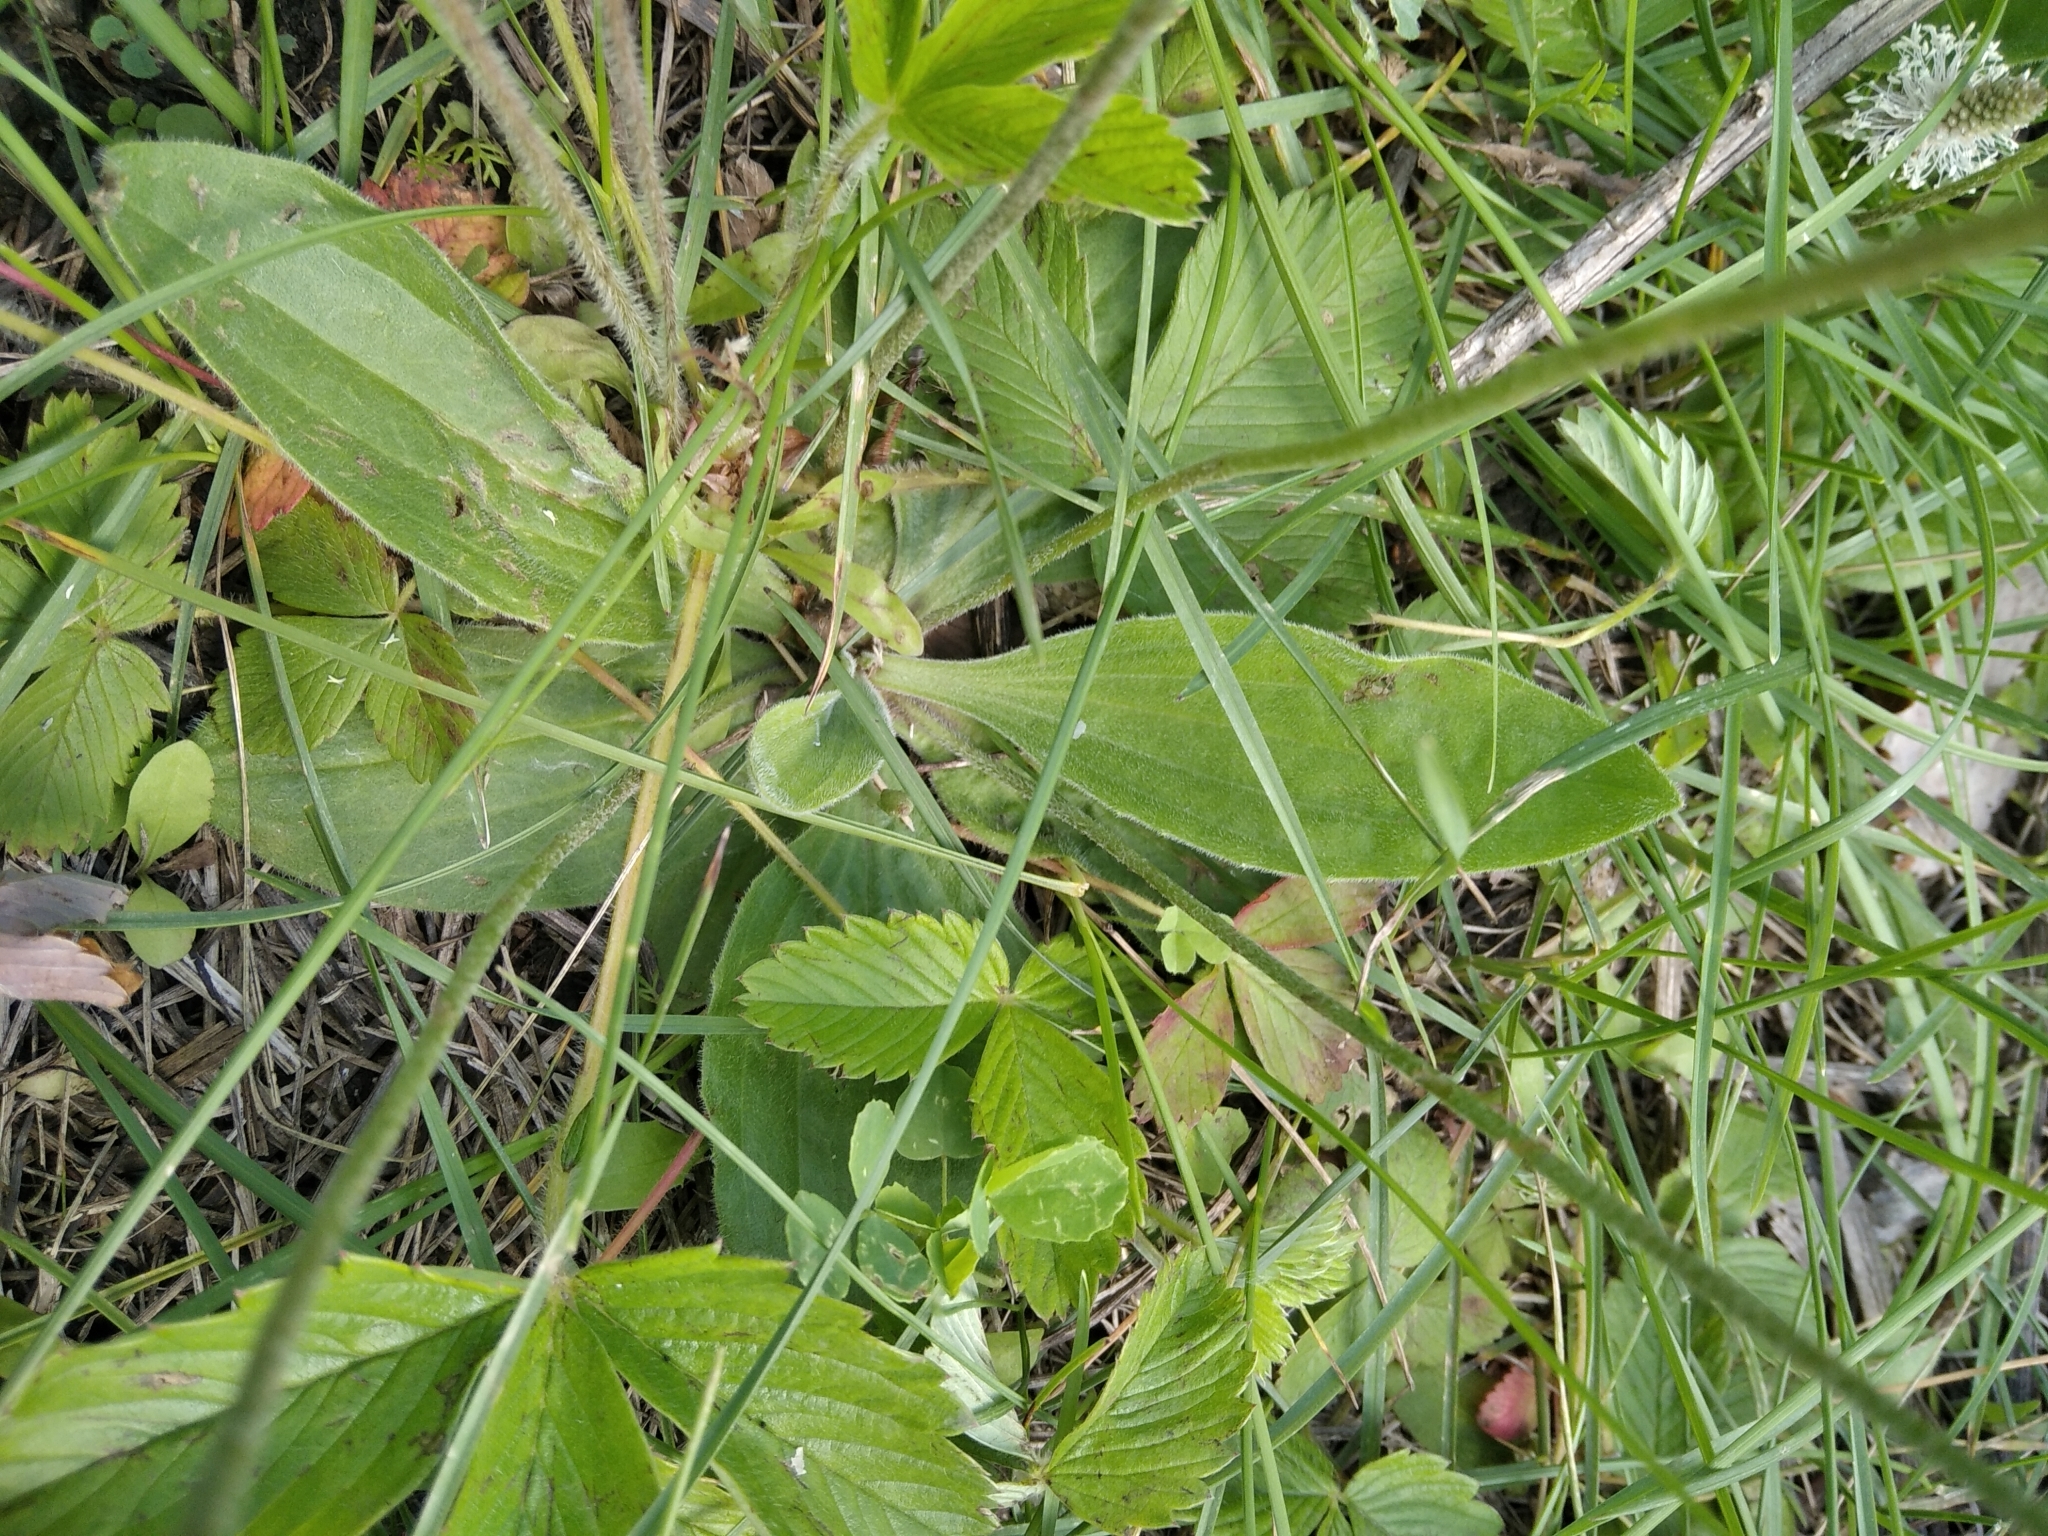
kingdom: Plantae
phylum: Tracheophyta
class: Magnoliopsida
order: Lamiales
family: Plantaginaceae
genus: Plantago
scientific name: Plantago media
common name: Hoary plantain
